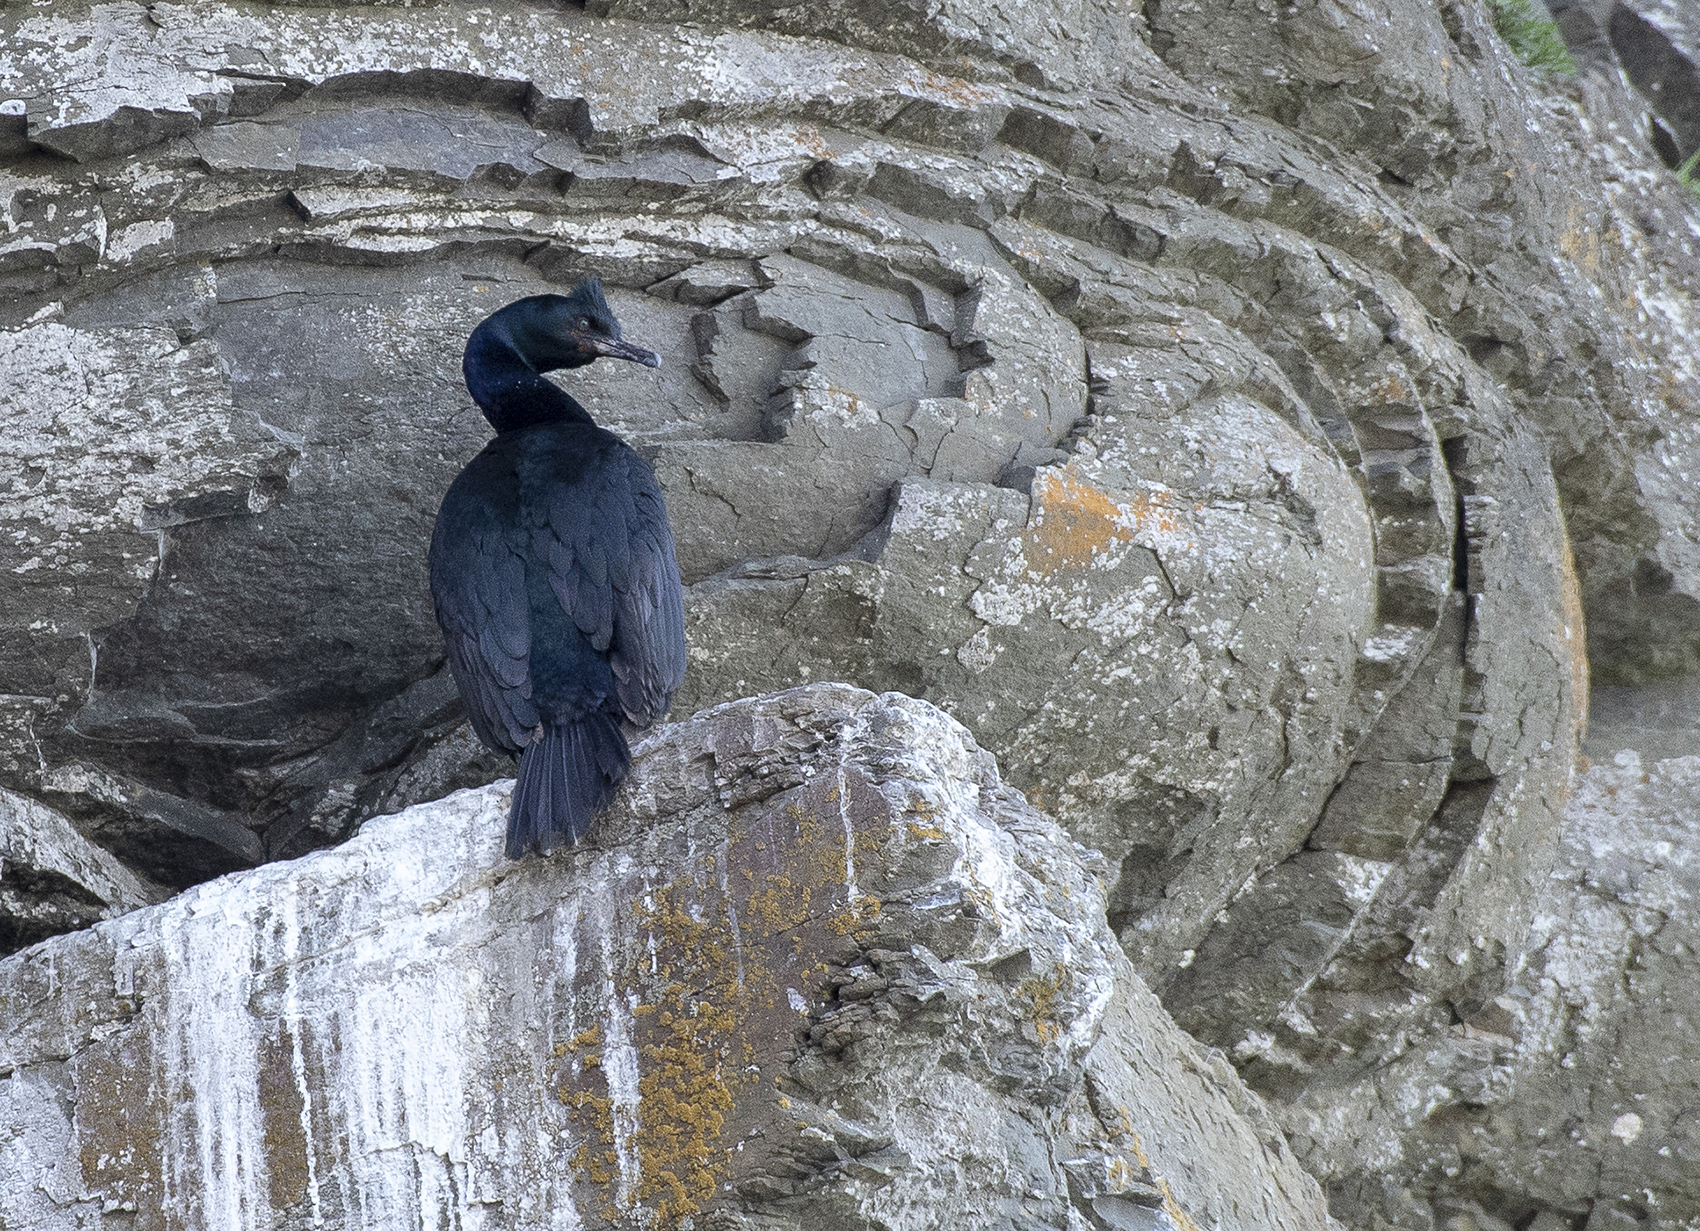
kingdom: Animalia
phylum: Chordata
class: Aves
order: Suliformes
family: Phalacrocoracidae
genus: Phalacrocorax
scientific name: Phalacrocorax pelagicus
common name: Pelagic cormorant
